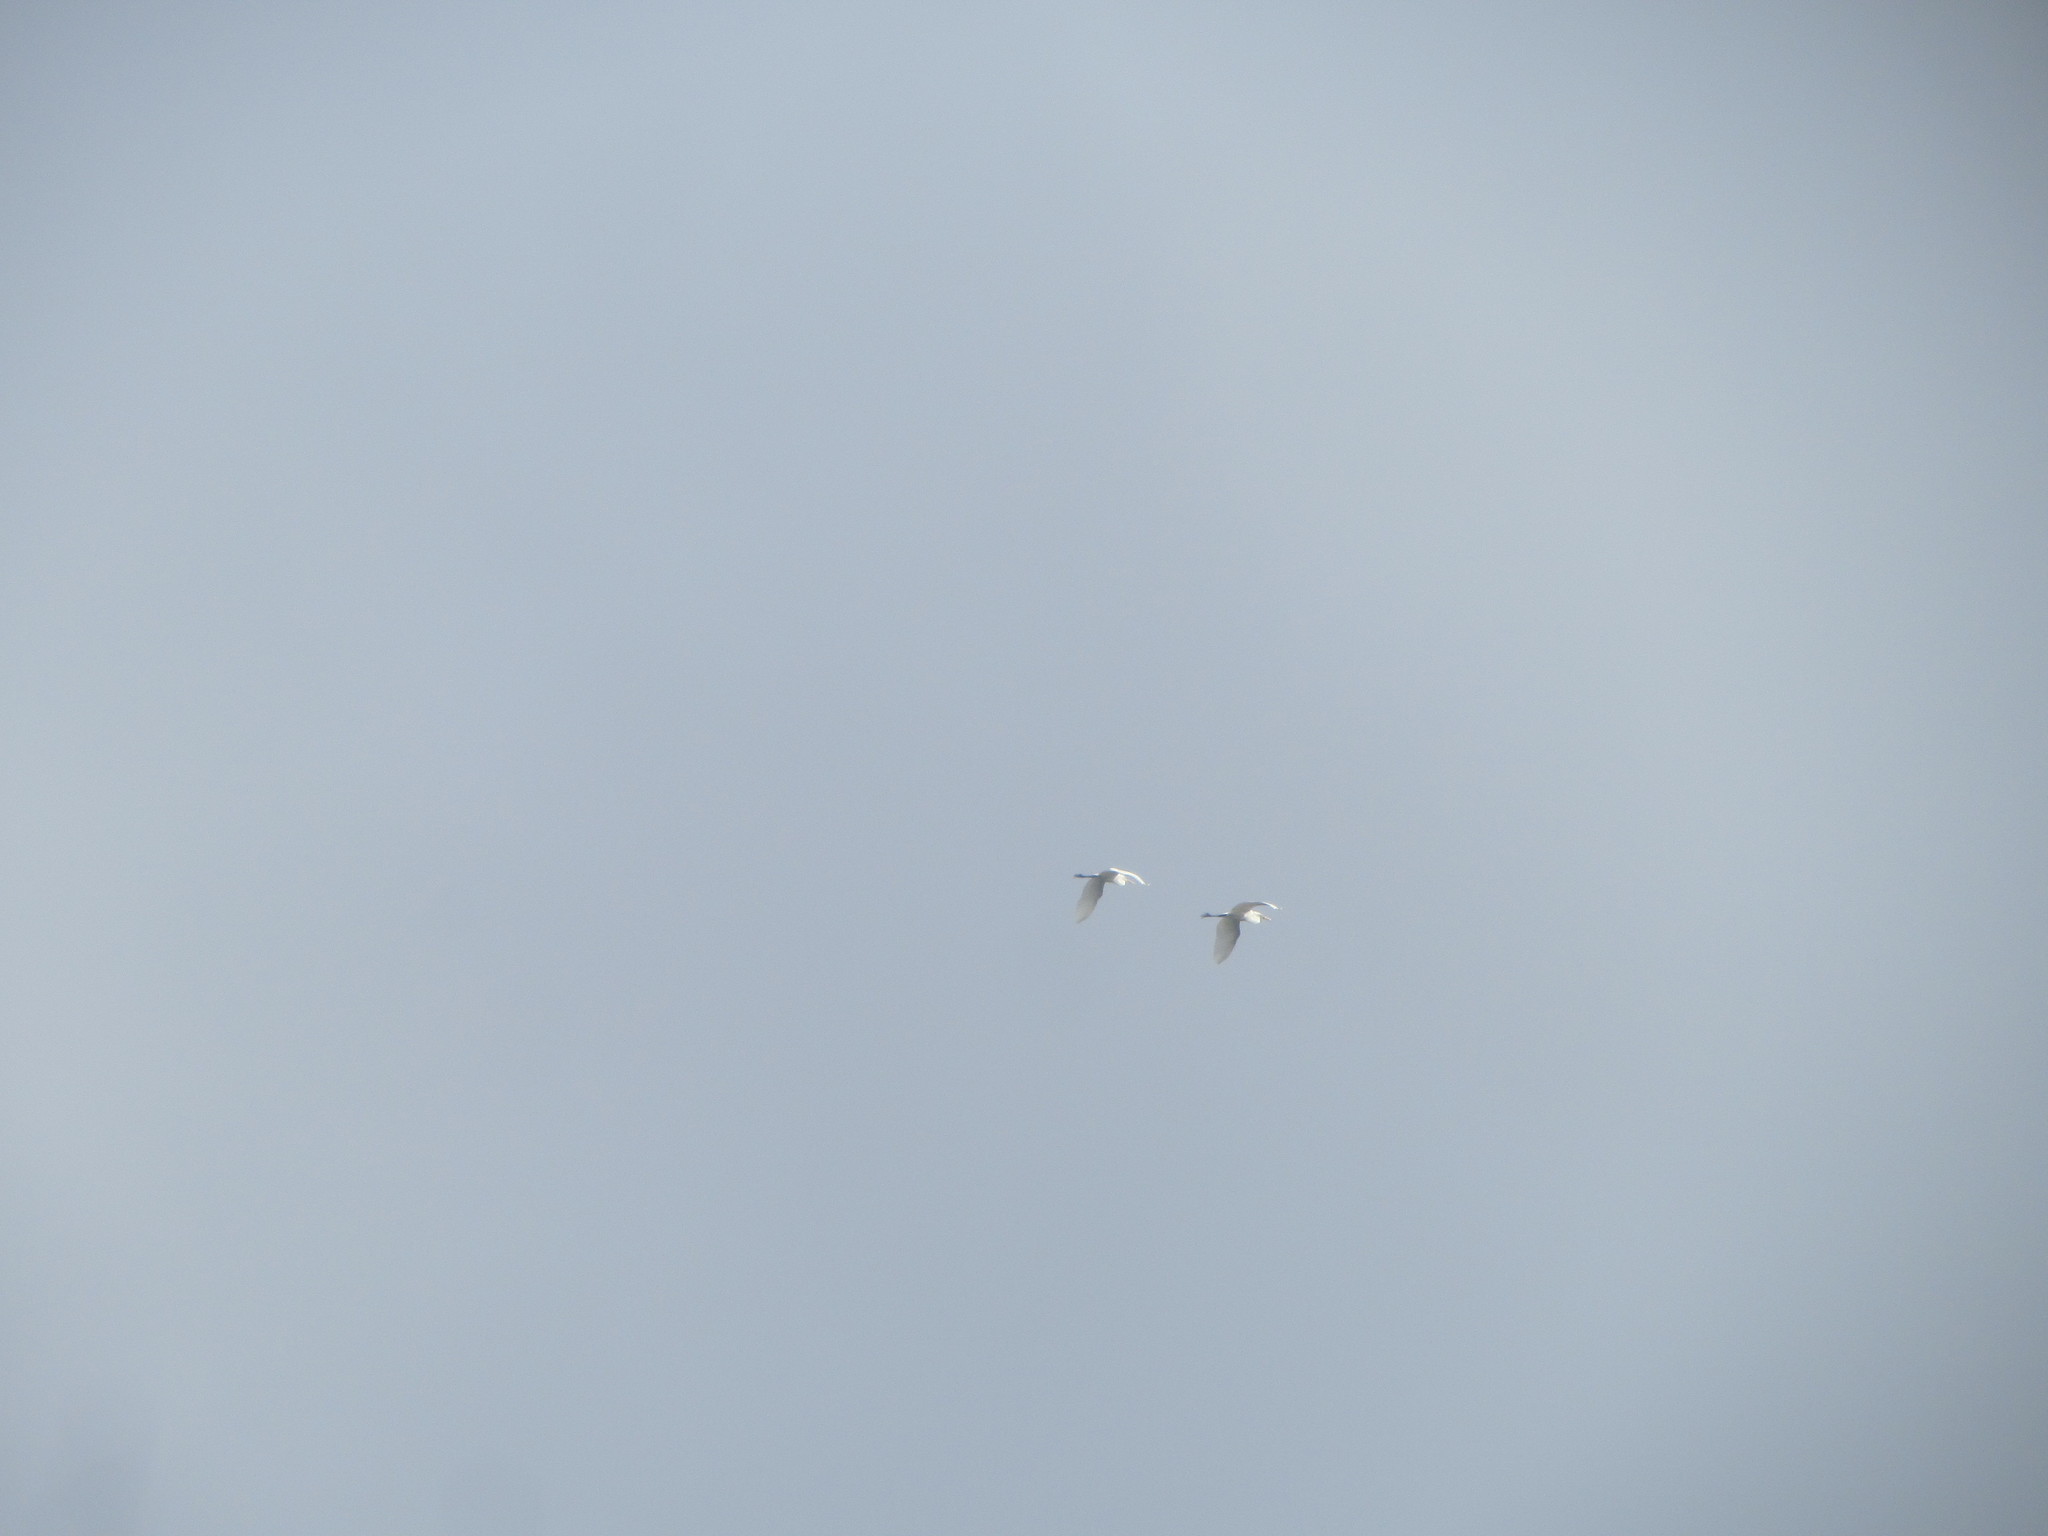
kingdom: Animalia
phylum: Chordata
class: Aves
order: Pelecaniformes
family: Ardeidae
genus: Ardea
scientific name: Ardea alba
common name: Great egret
